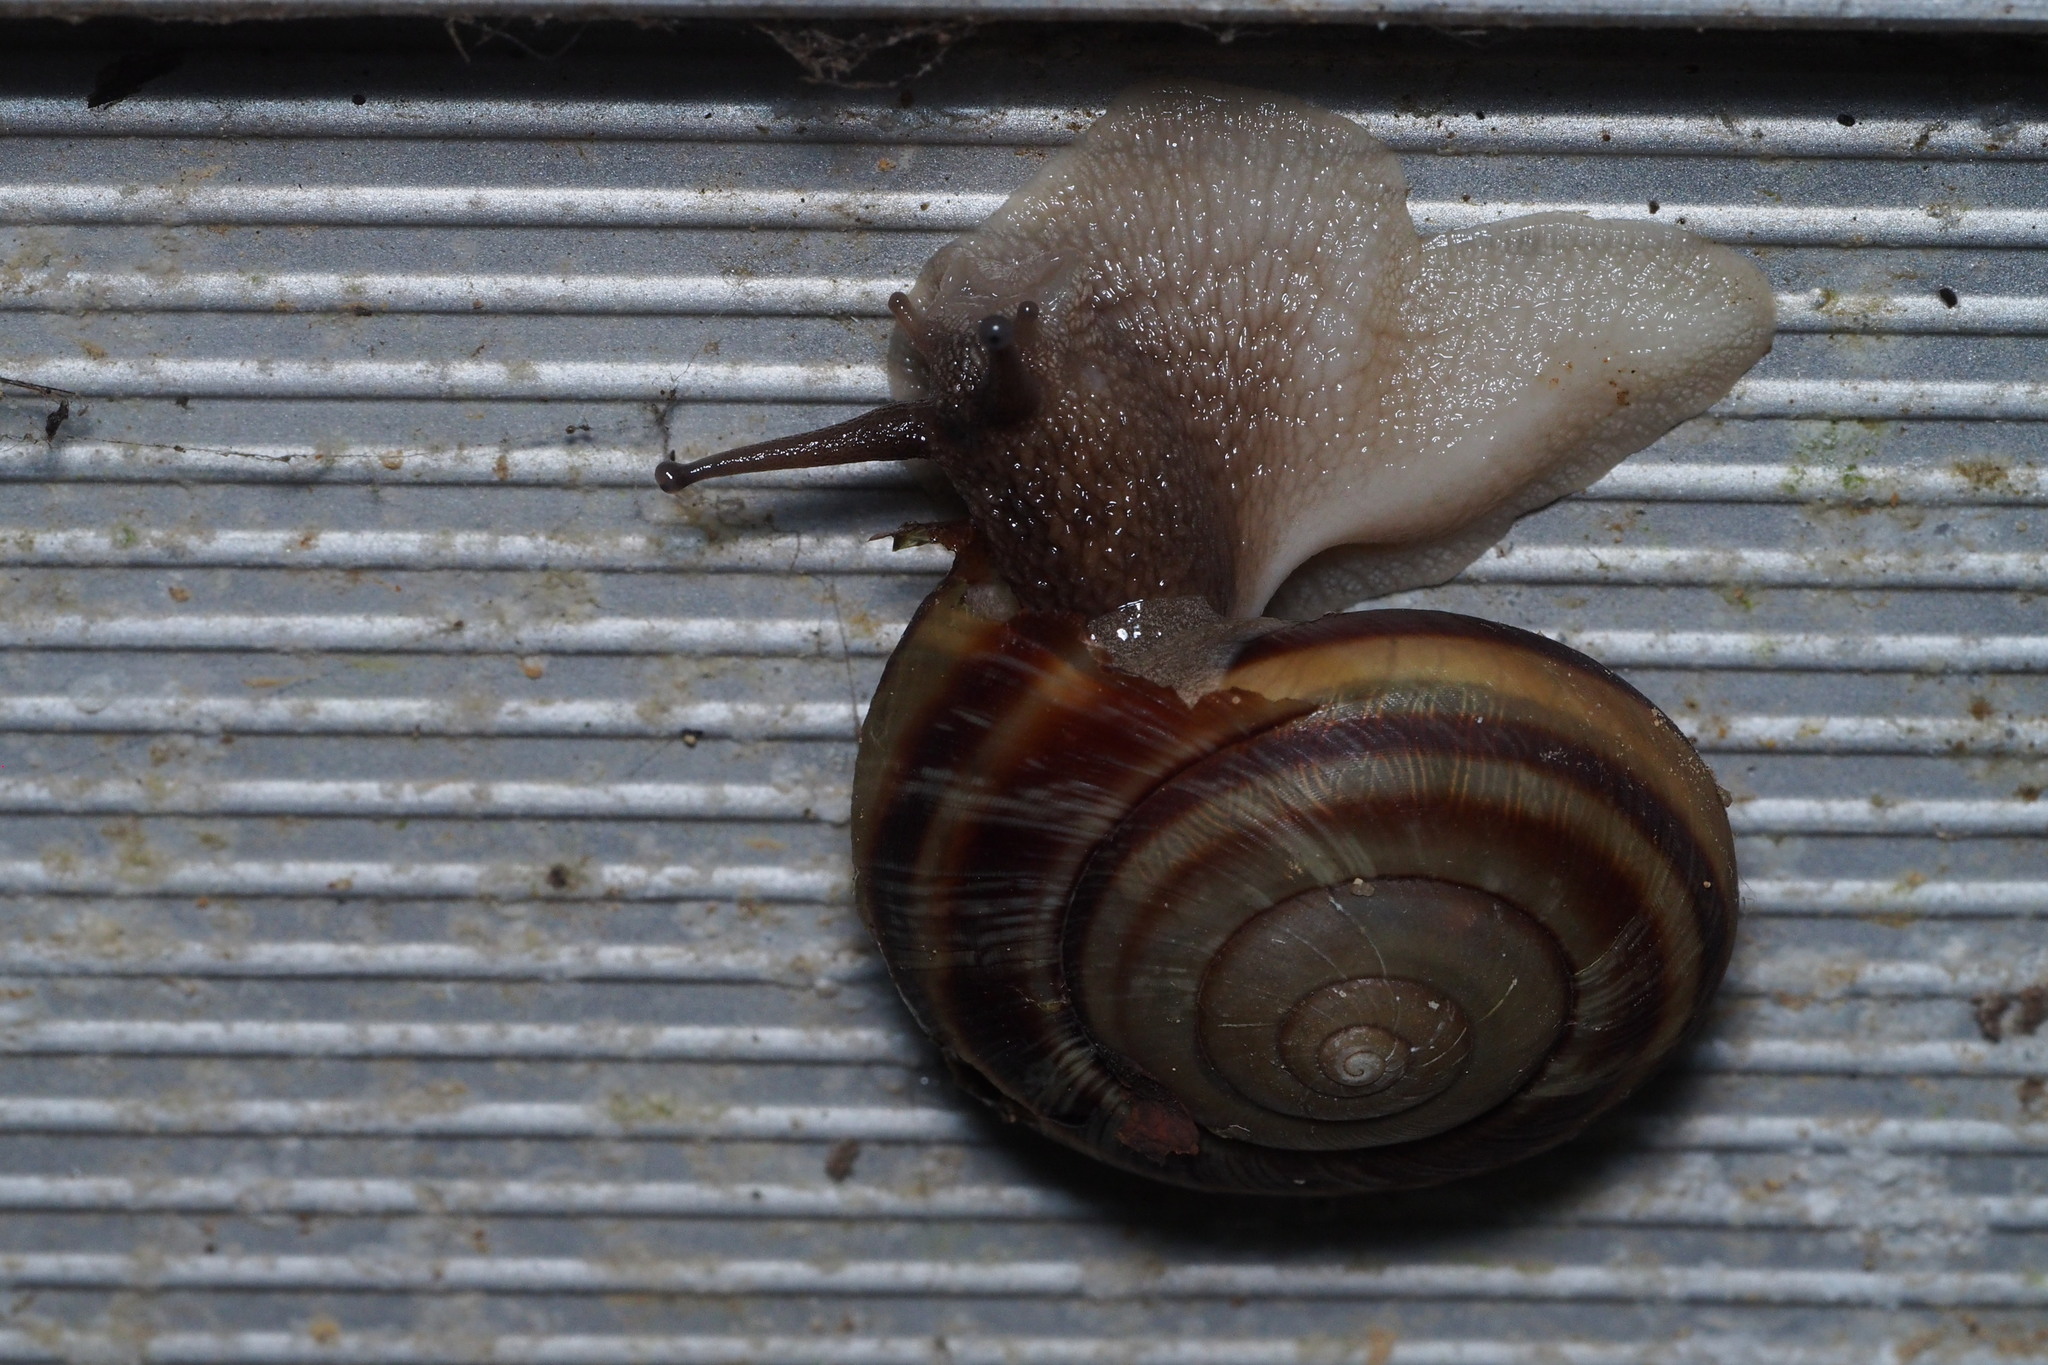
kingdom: Animalia
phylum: Mollusca
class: Gastropoda
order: Stylommatophora
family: Camaenidae
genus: Euhadra
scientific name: Euhadra sandai
